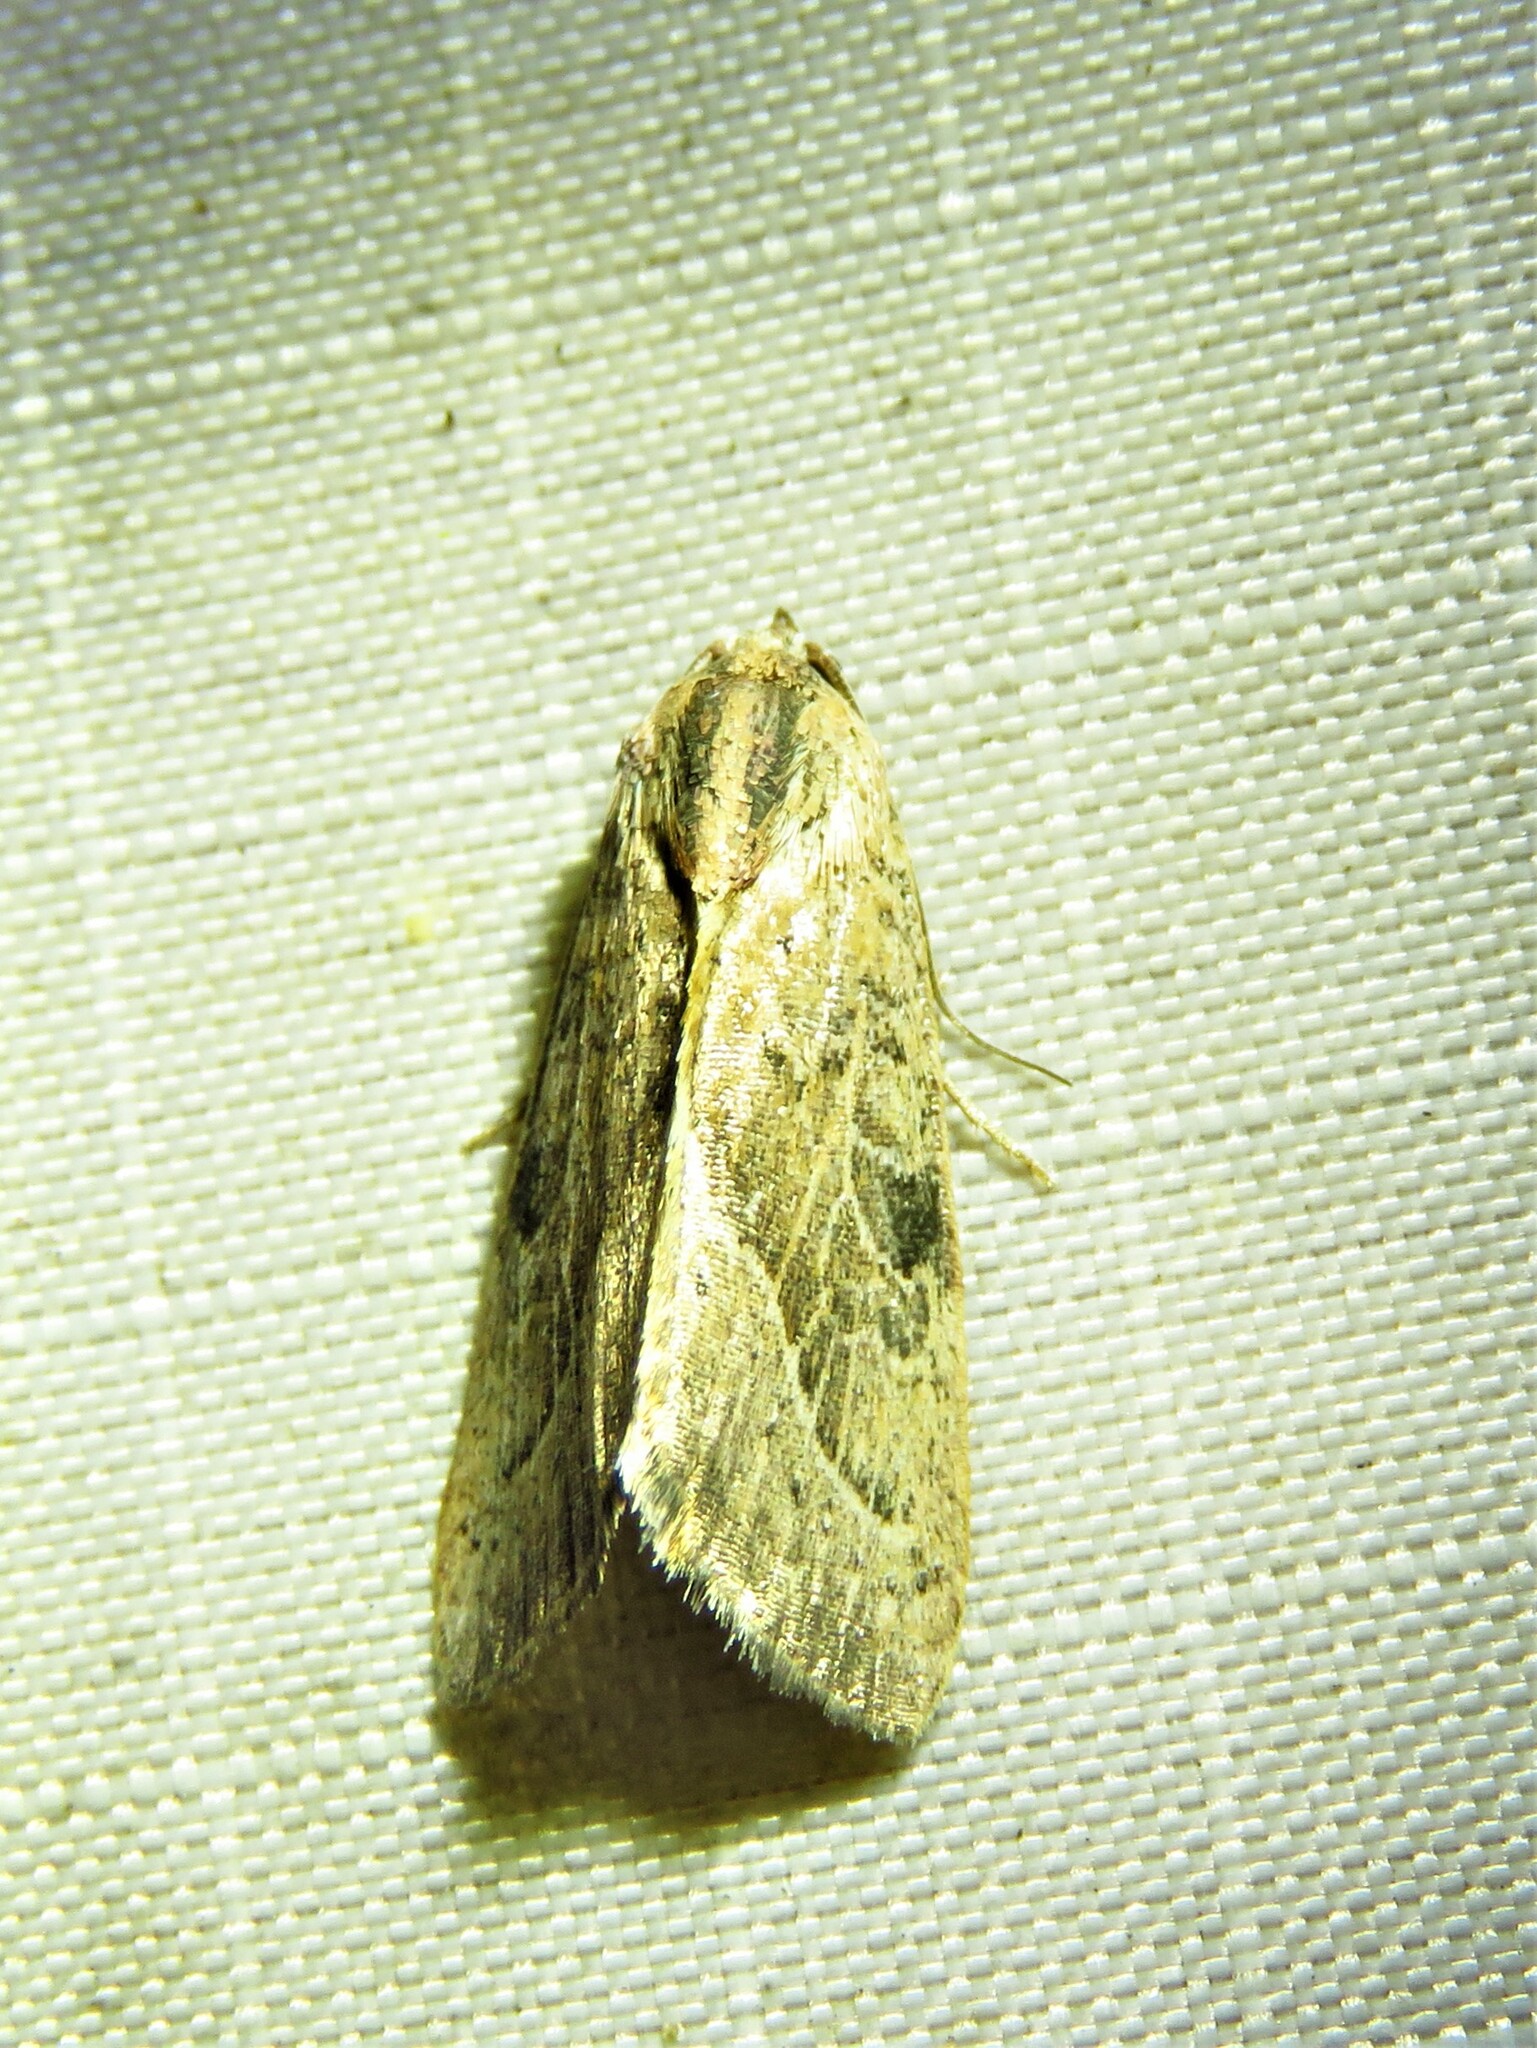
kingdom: Animalia
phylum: Arthropoda
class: Insecta
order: Lepidoptera
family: Noctuidae
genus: Galgula
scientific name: Galgula partita
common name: Wedgeling
